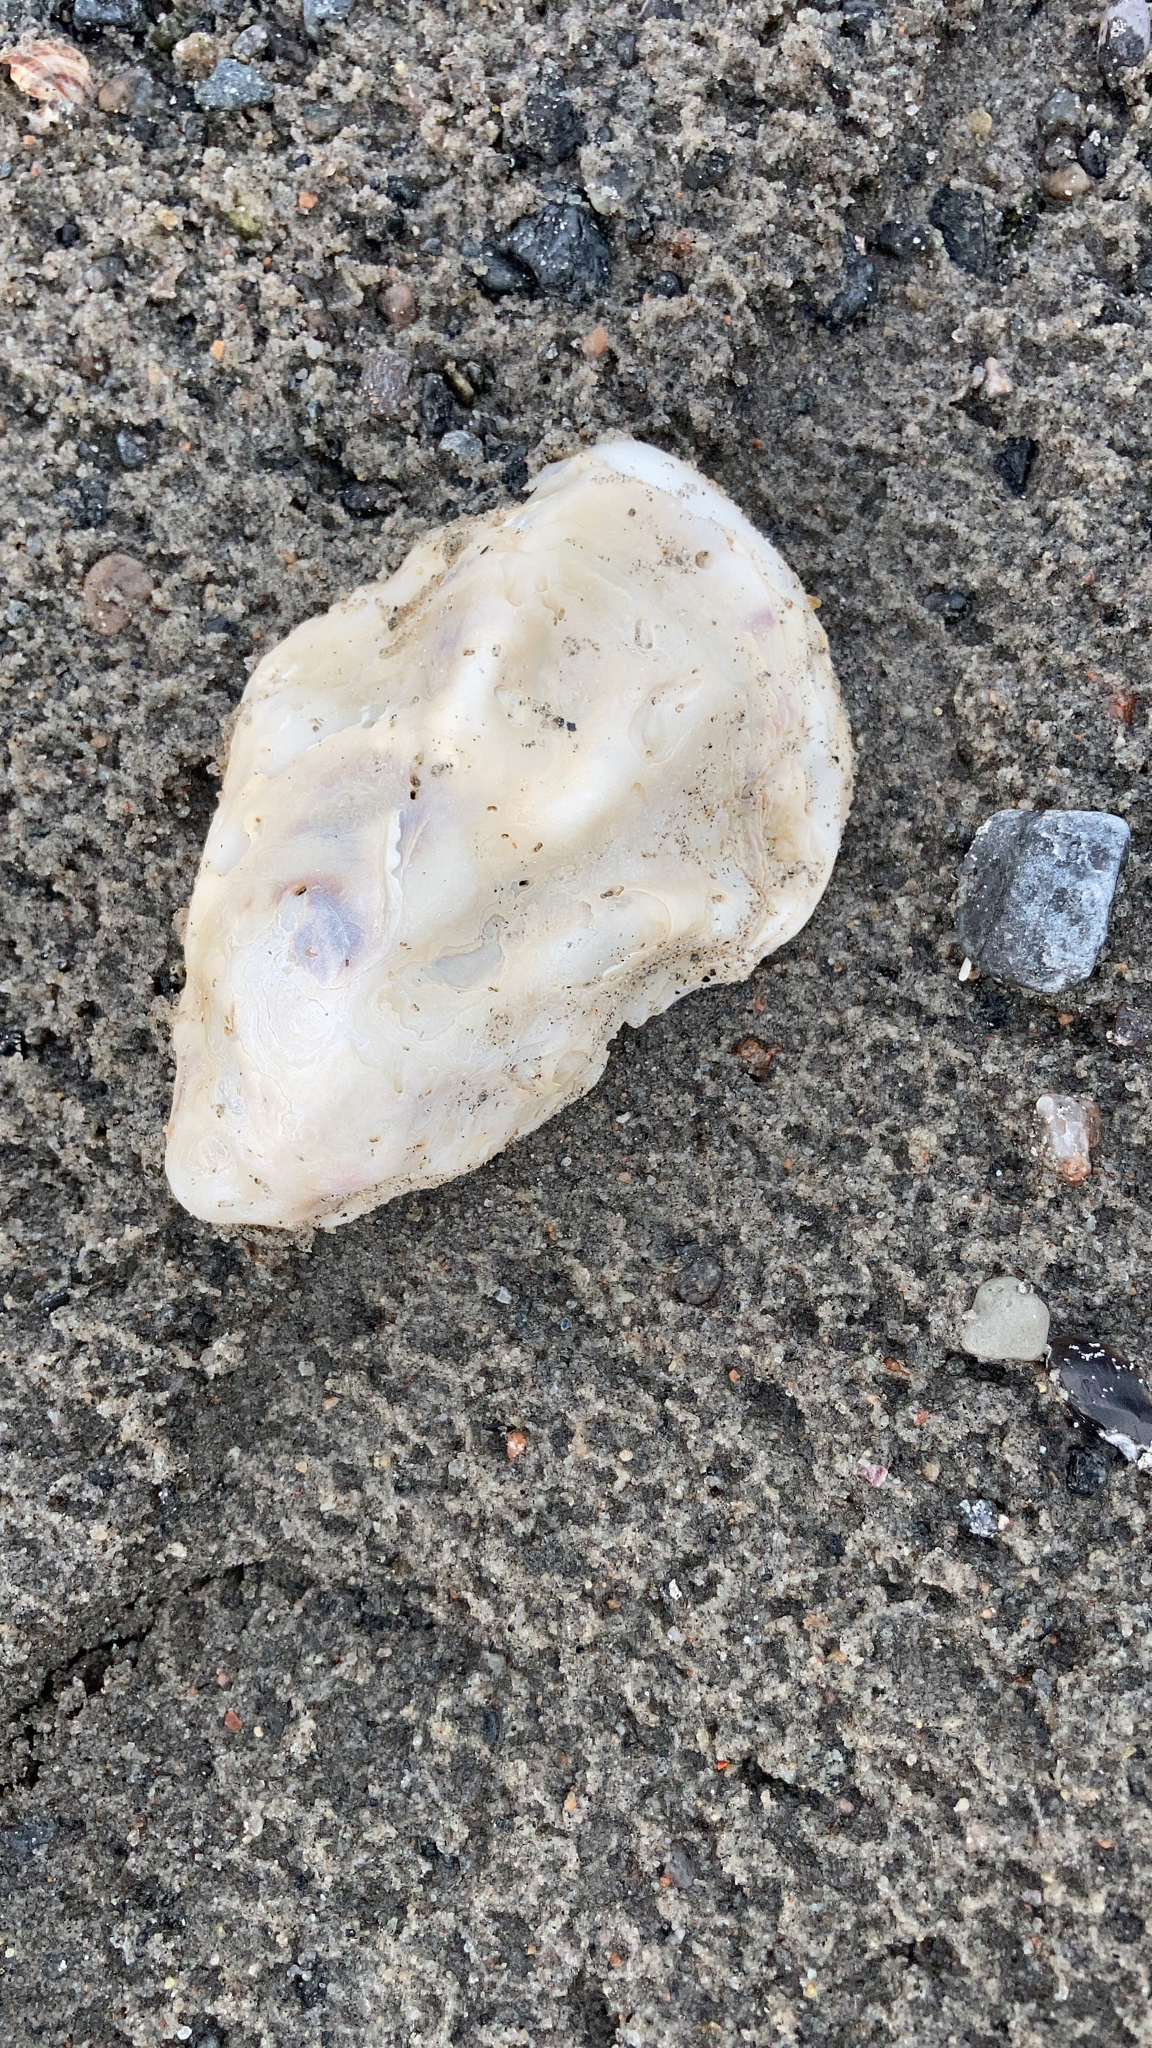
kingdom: Animalia
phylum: Mollusca
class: Bivalvia
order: Ostreida
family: Ostreidae
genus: Magallana
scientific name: Magallana gigas
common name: Pacific oyster
